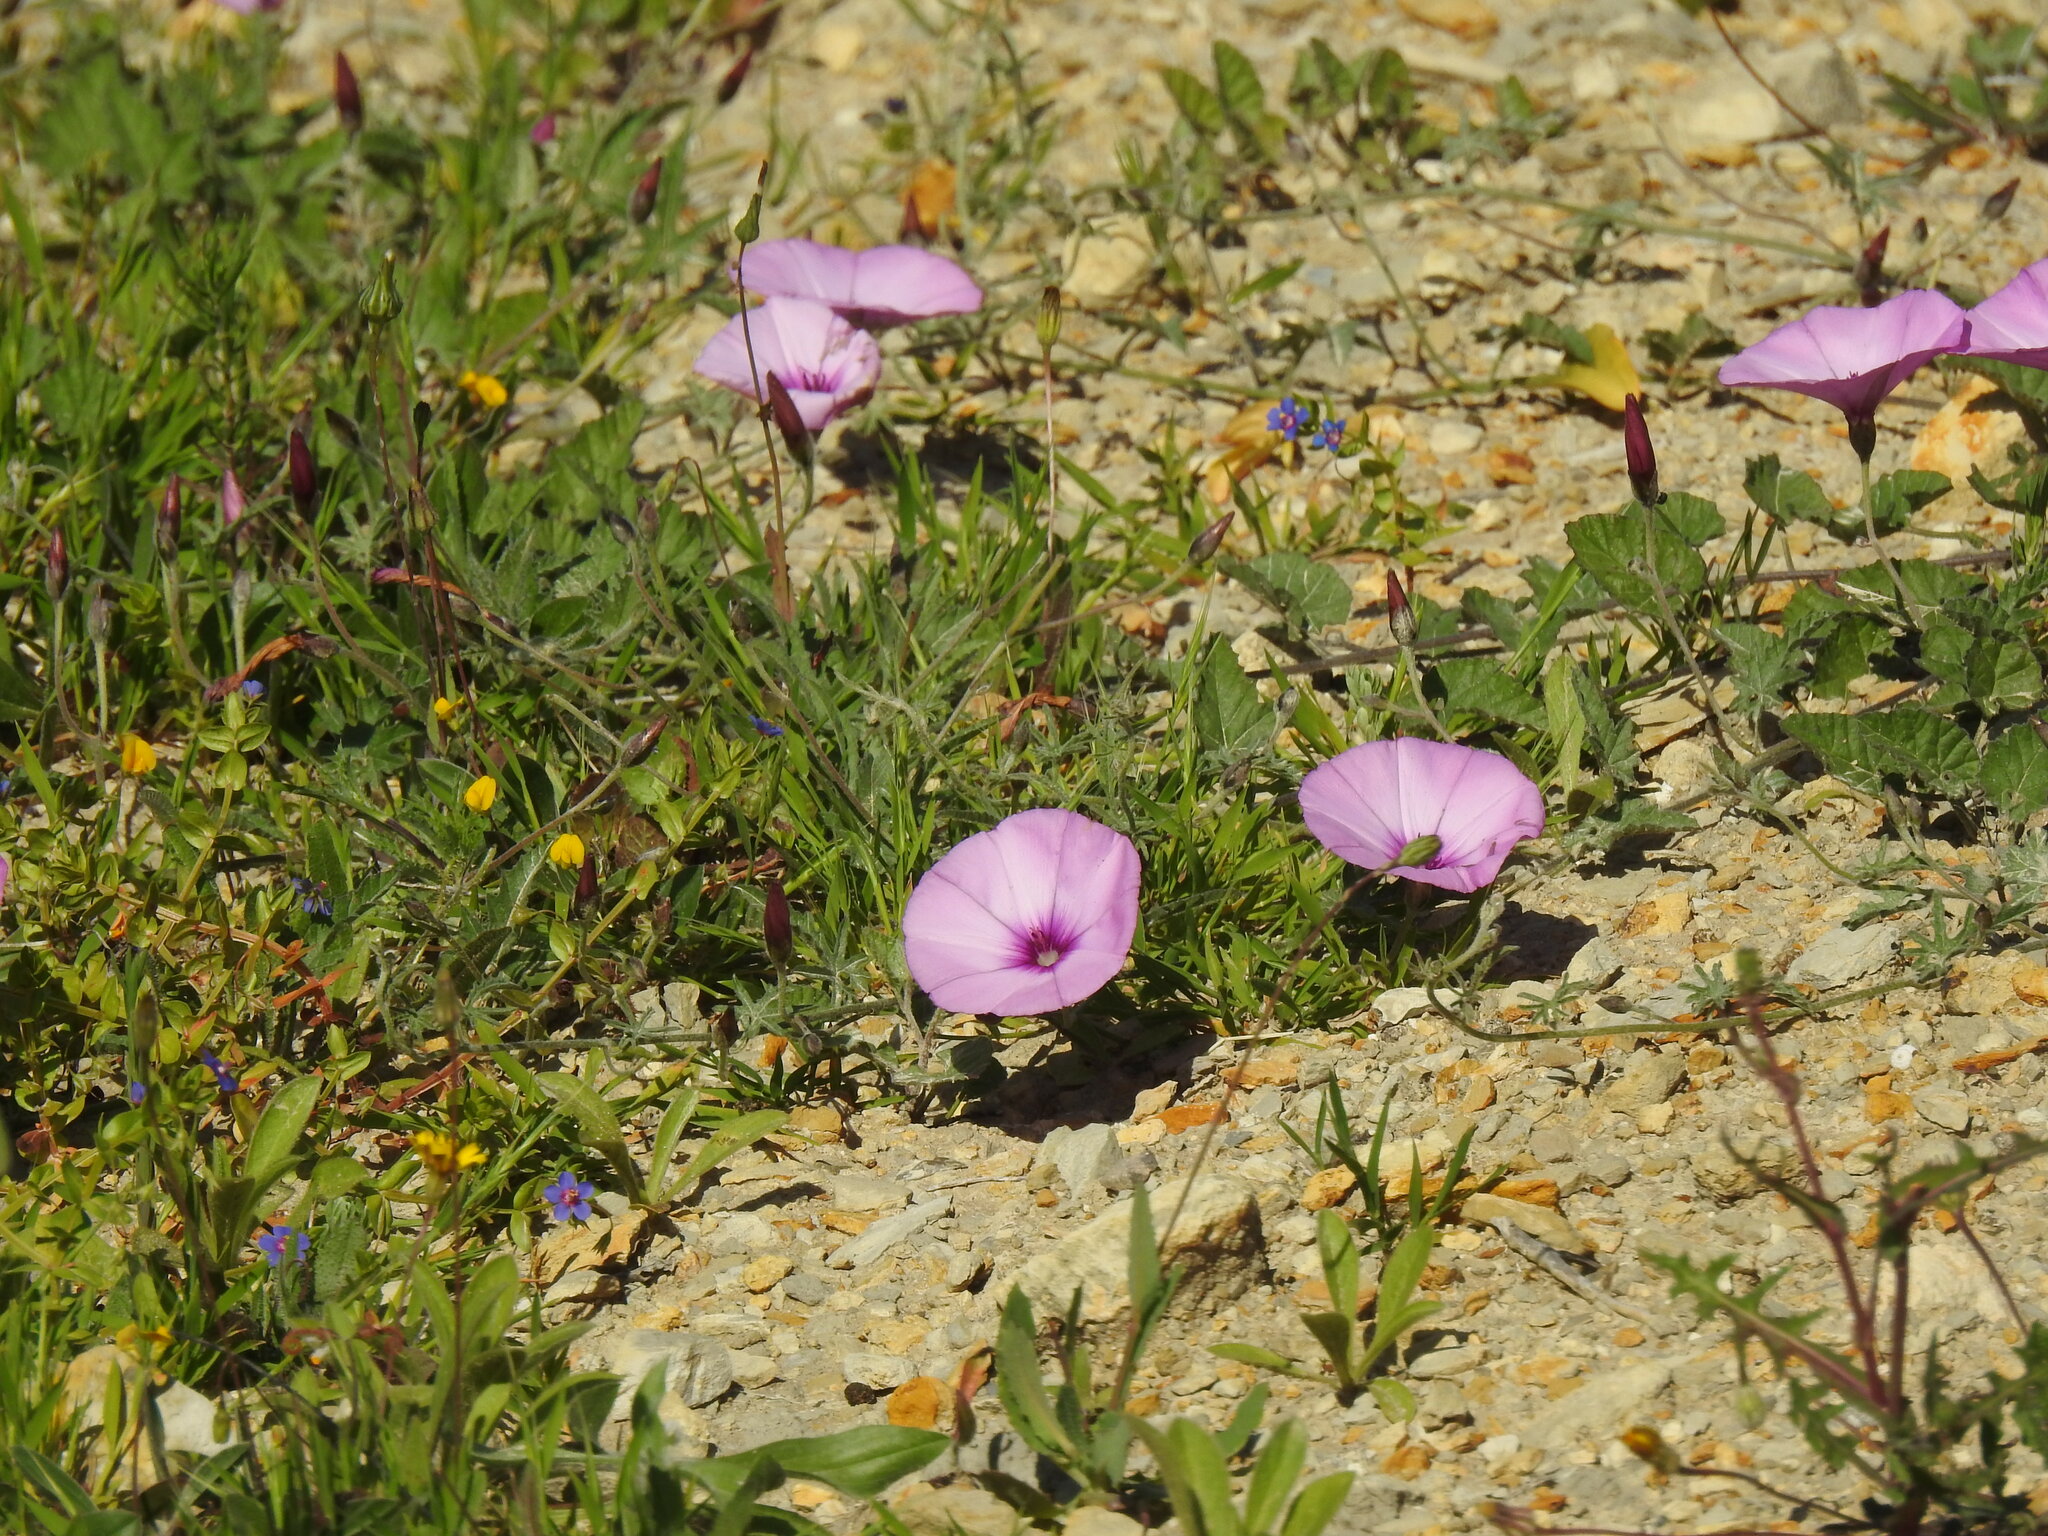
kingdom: Plantae
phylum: Tracheophyta
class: Magnoliopsida
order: Solanales
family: Convolvulaceae
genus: Convolvulus
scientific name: Convolvulus althaeoides
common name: Mallow bindweed
